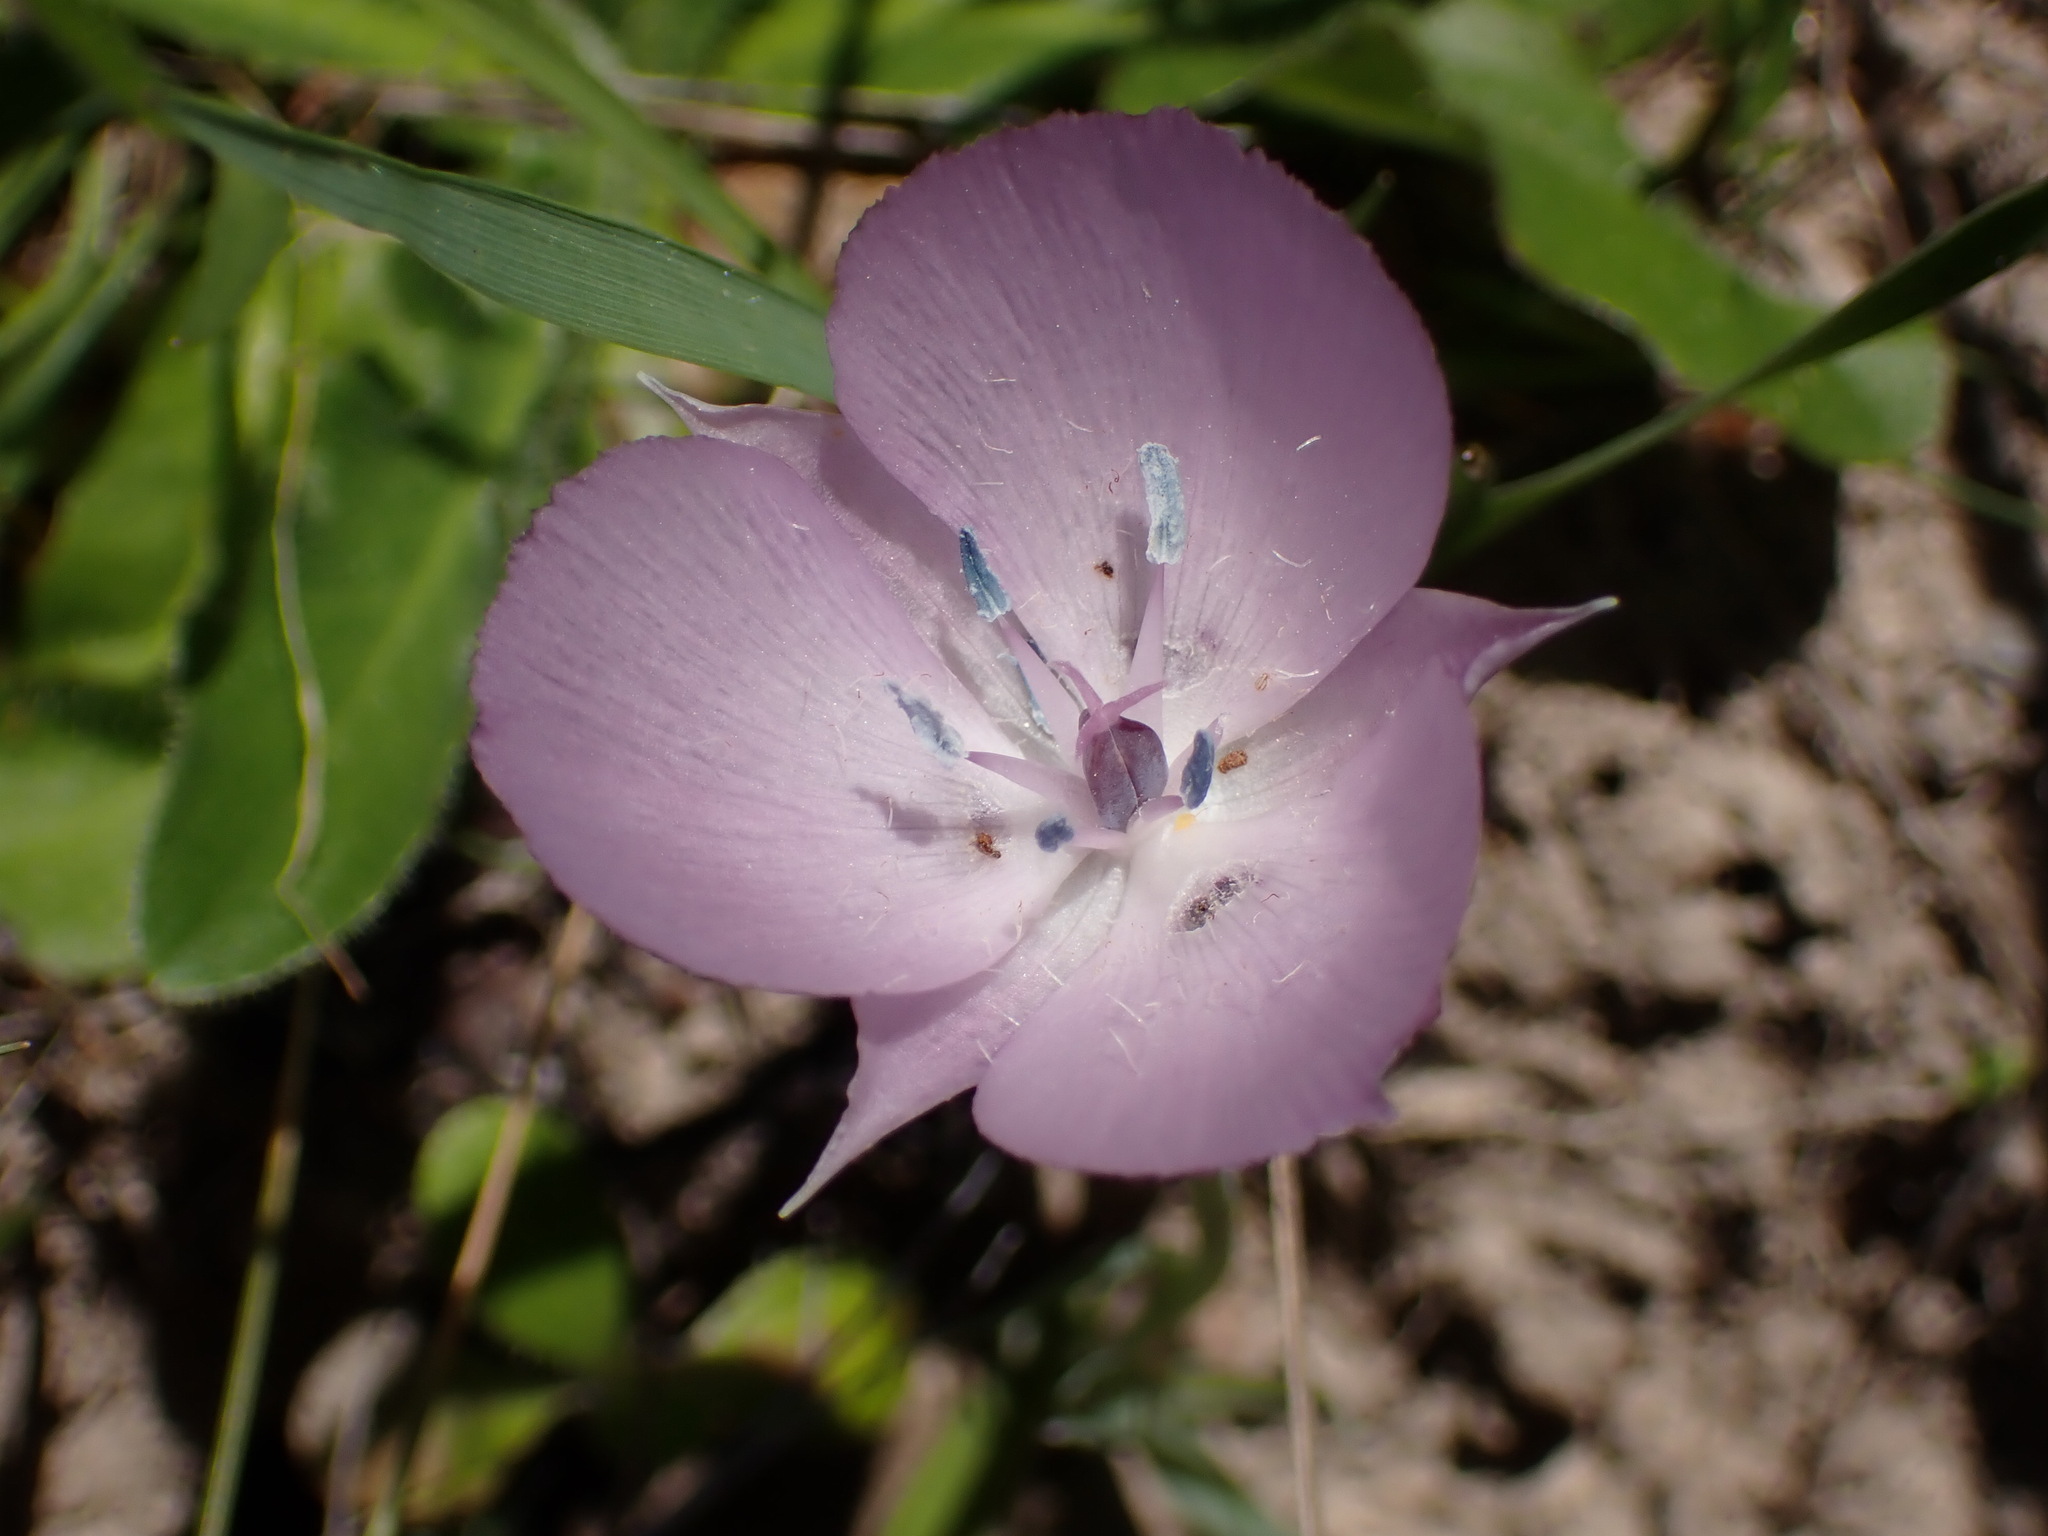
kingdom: Plantae
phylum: Tracheophyta
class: Liliopsida
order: Liliales
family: Liliaceae
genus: Calochortus
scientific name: Calochortus uniflorus
